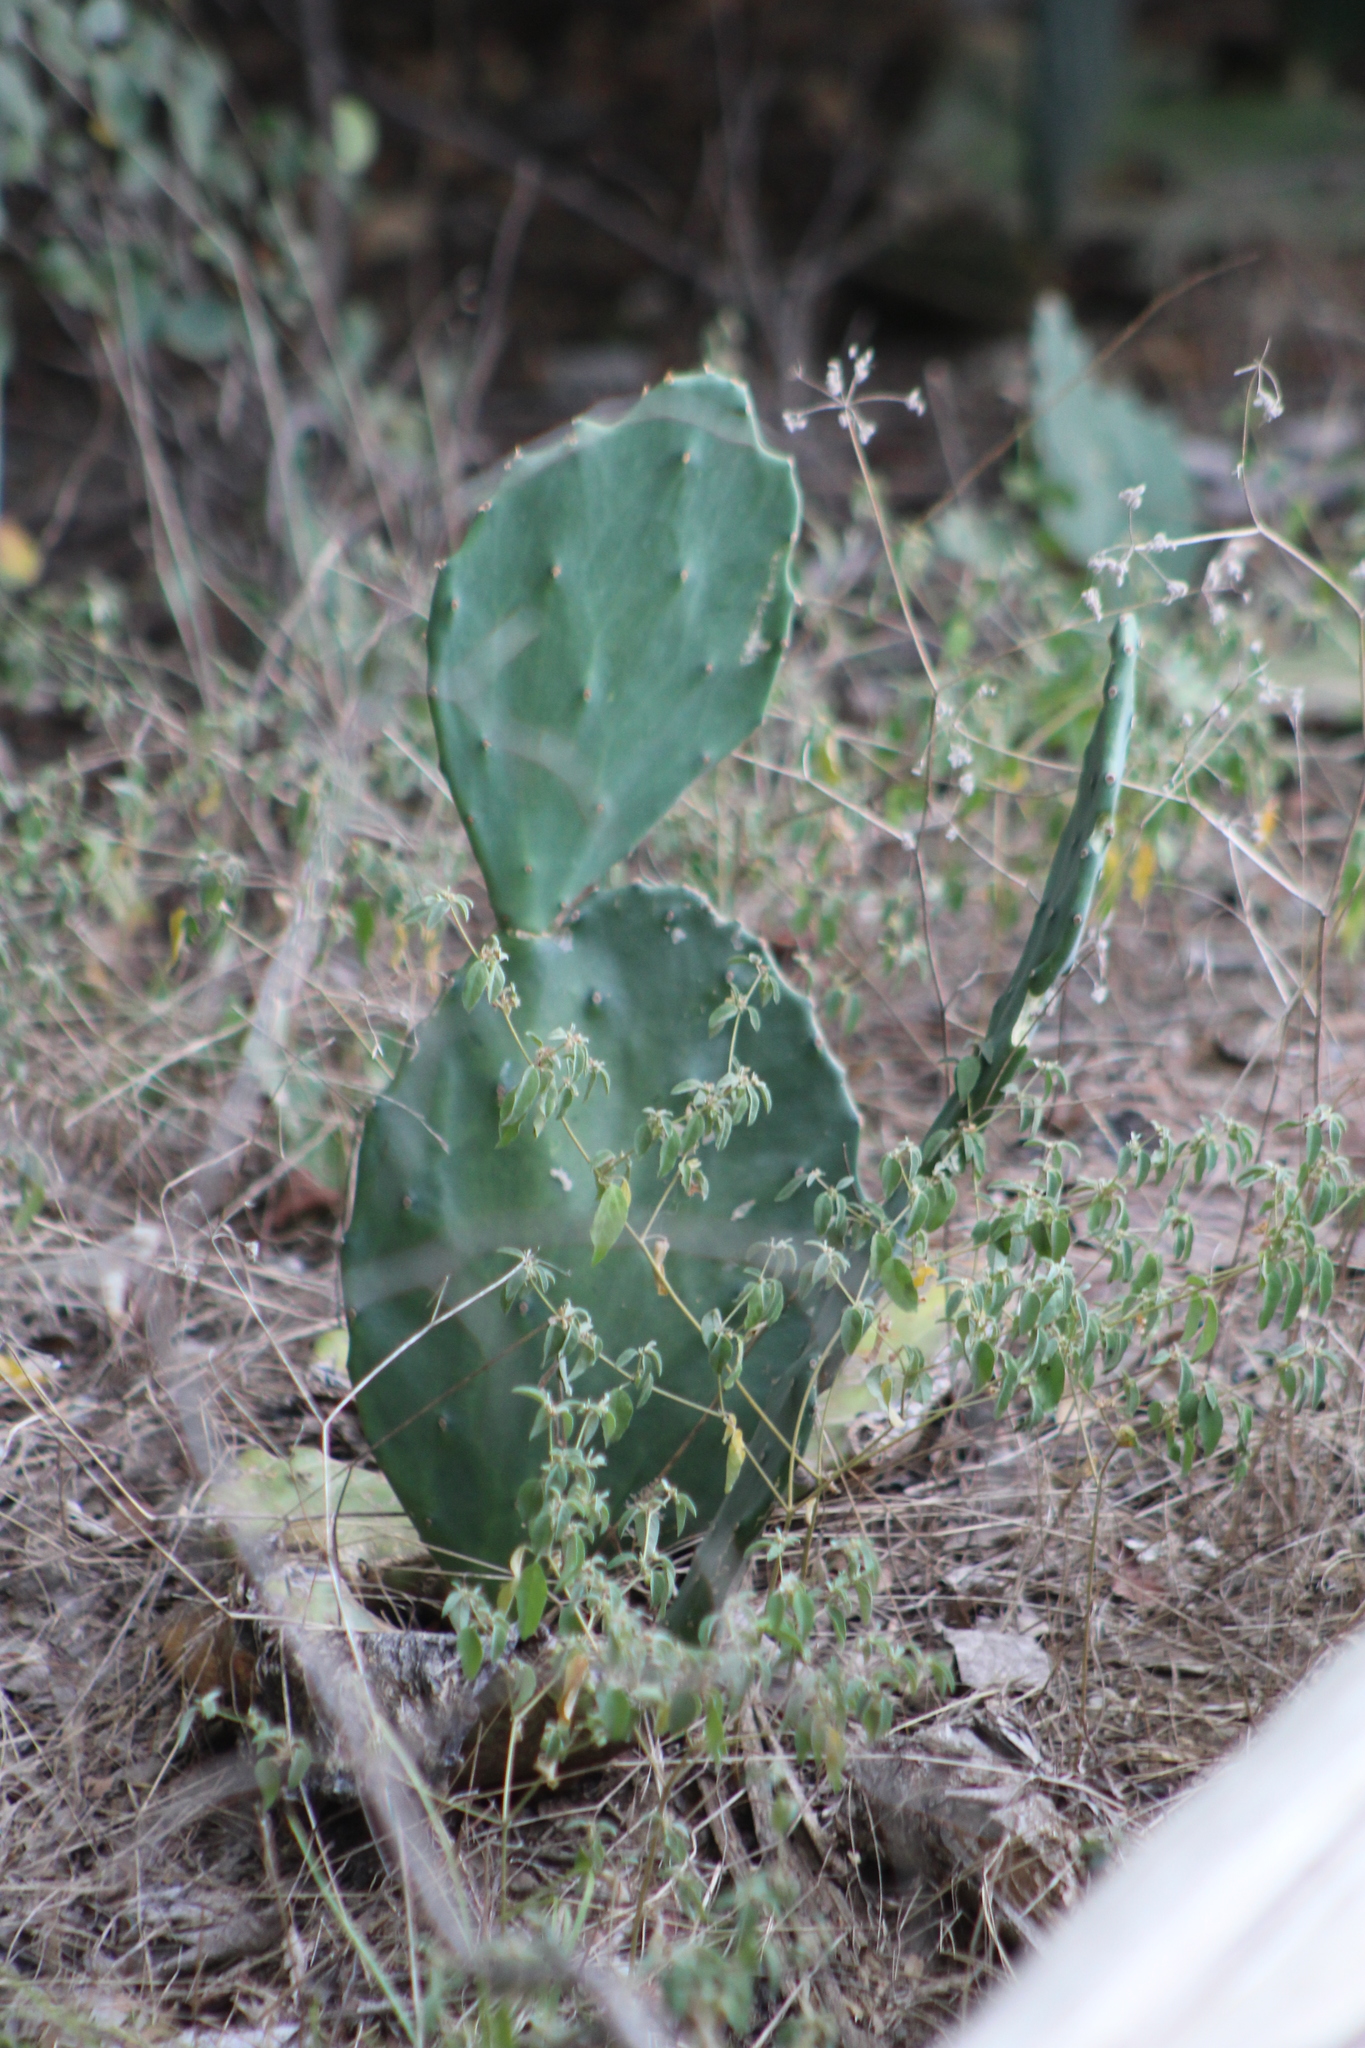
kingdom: Plantae
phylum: Tracheophyta
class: Magnoliopsida
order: Caryophyllales
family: Cactaceae
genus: Opuntia
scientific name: Opuntia
